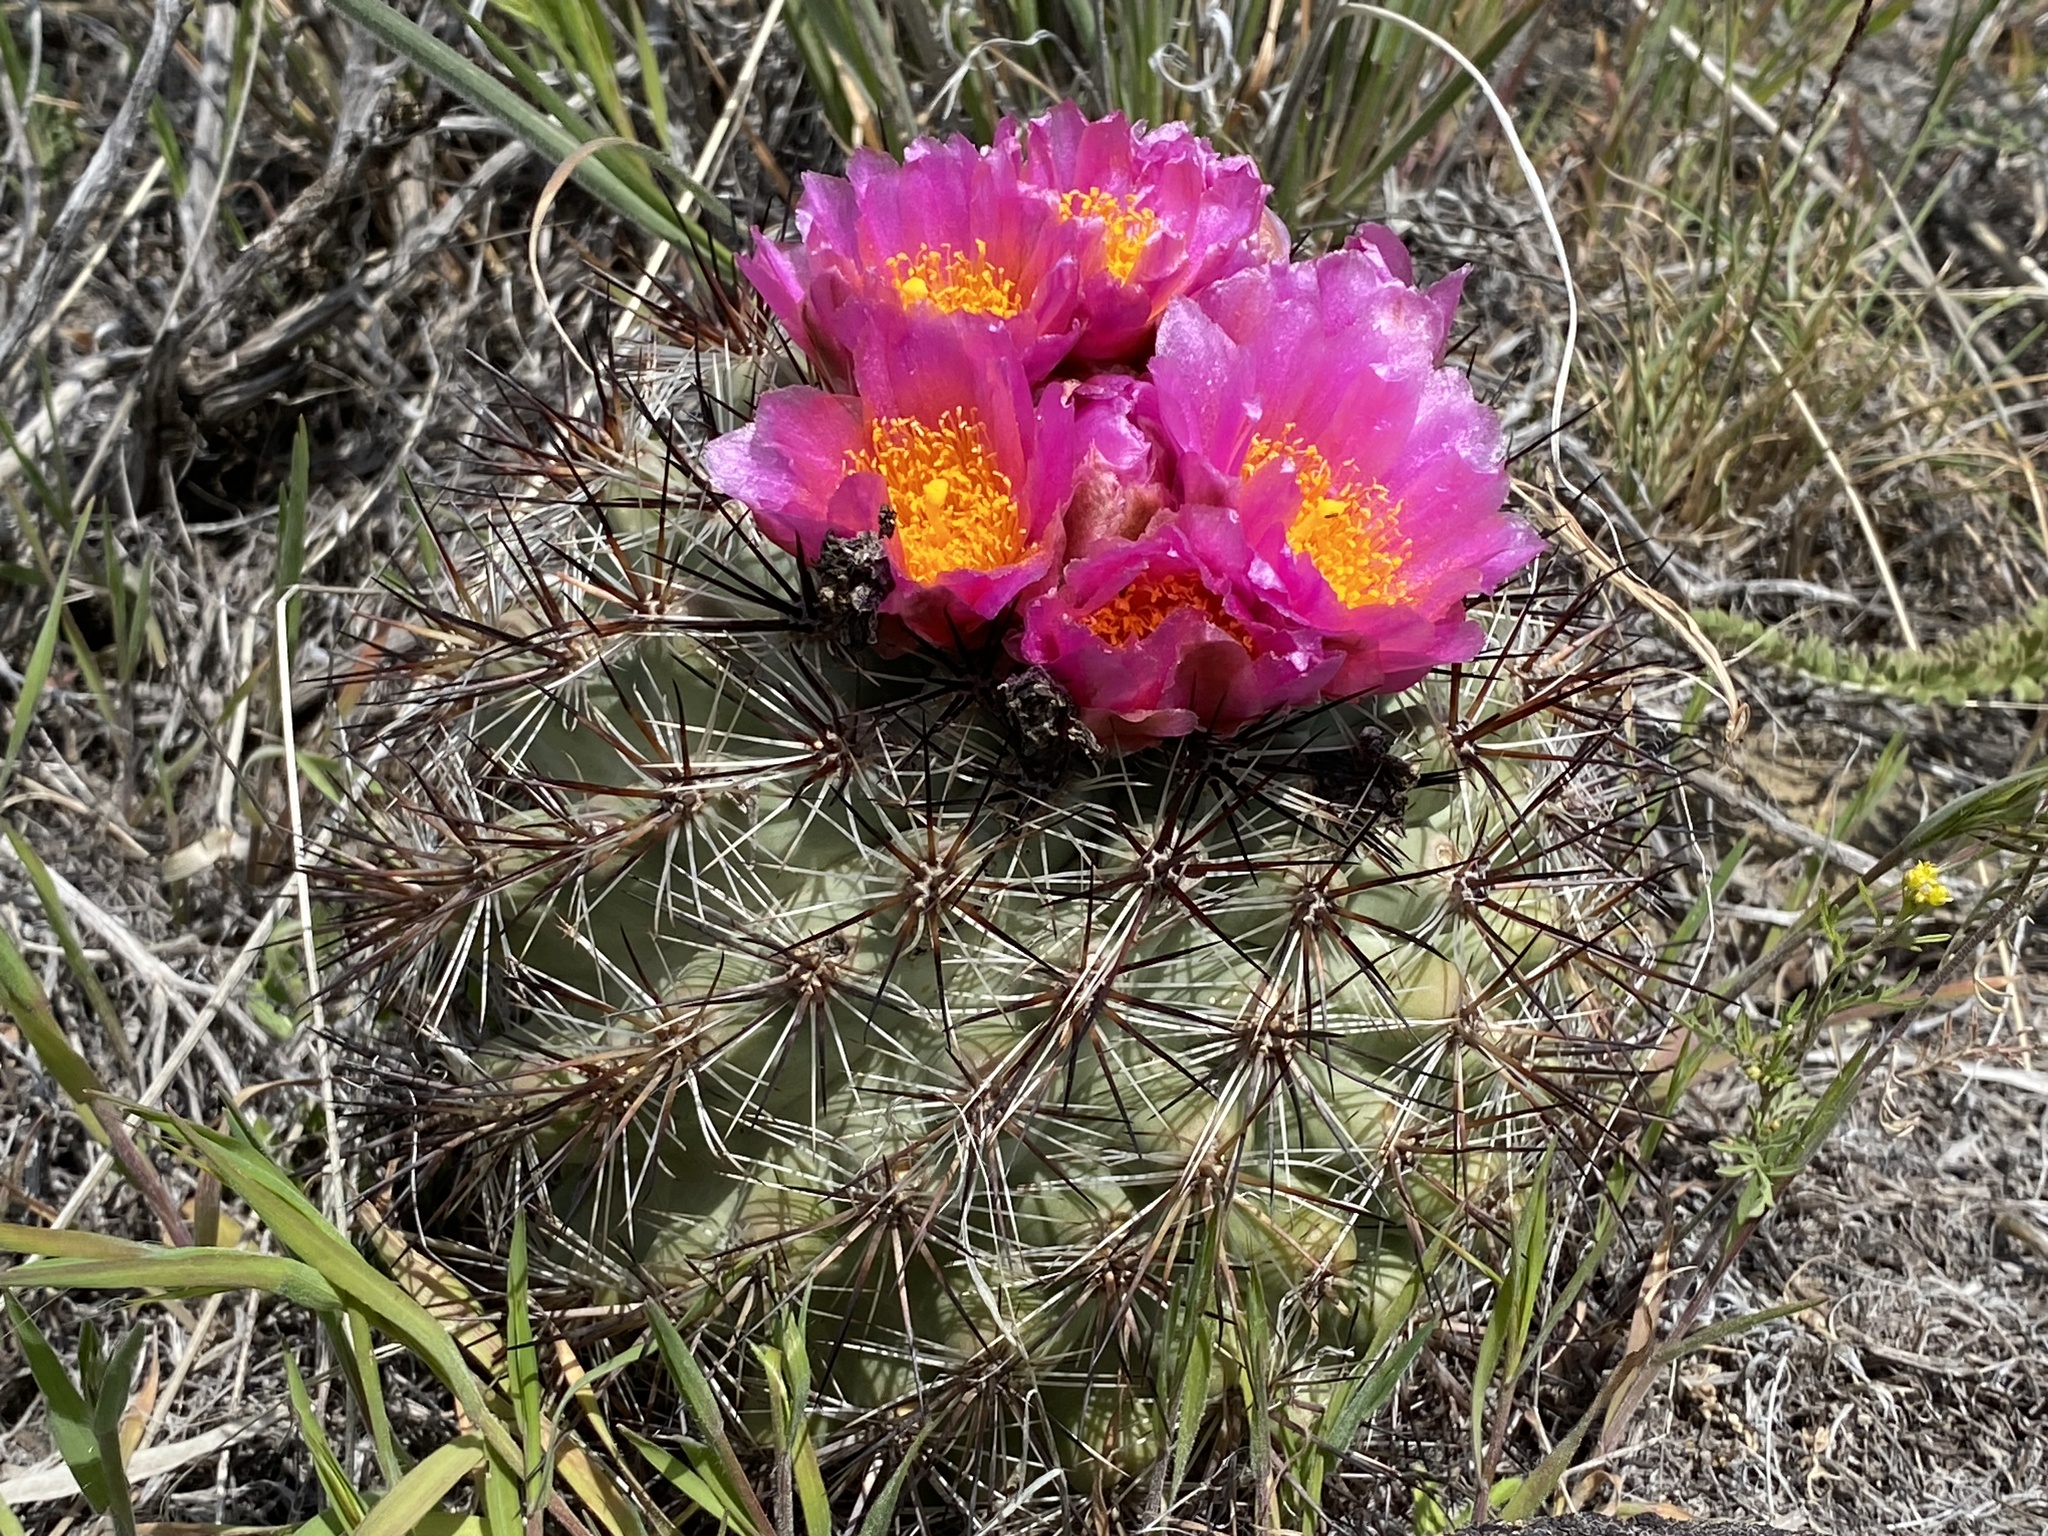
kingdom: Plantae
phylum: Tracheophyta
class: Magnoliopsida
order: Caryophyllales
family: Cactaceae
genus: Pediocactus
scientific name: Pediocactus nigrispinus
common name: Simpson's hedgehog cactus
